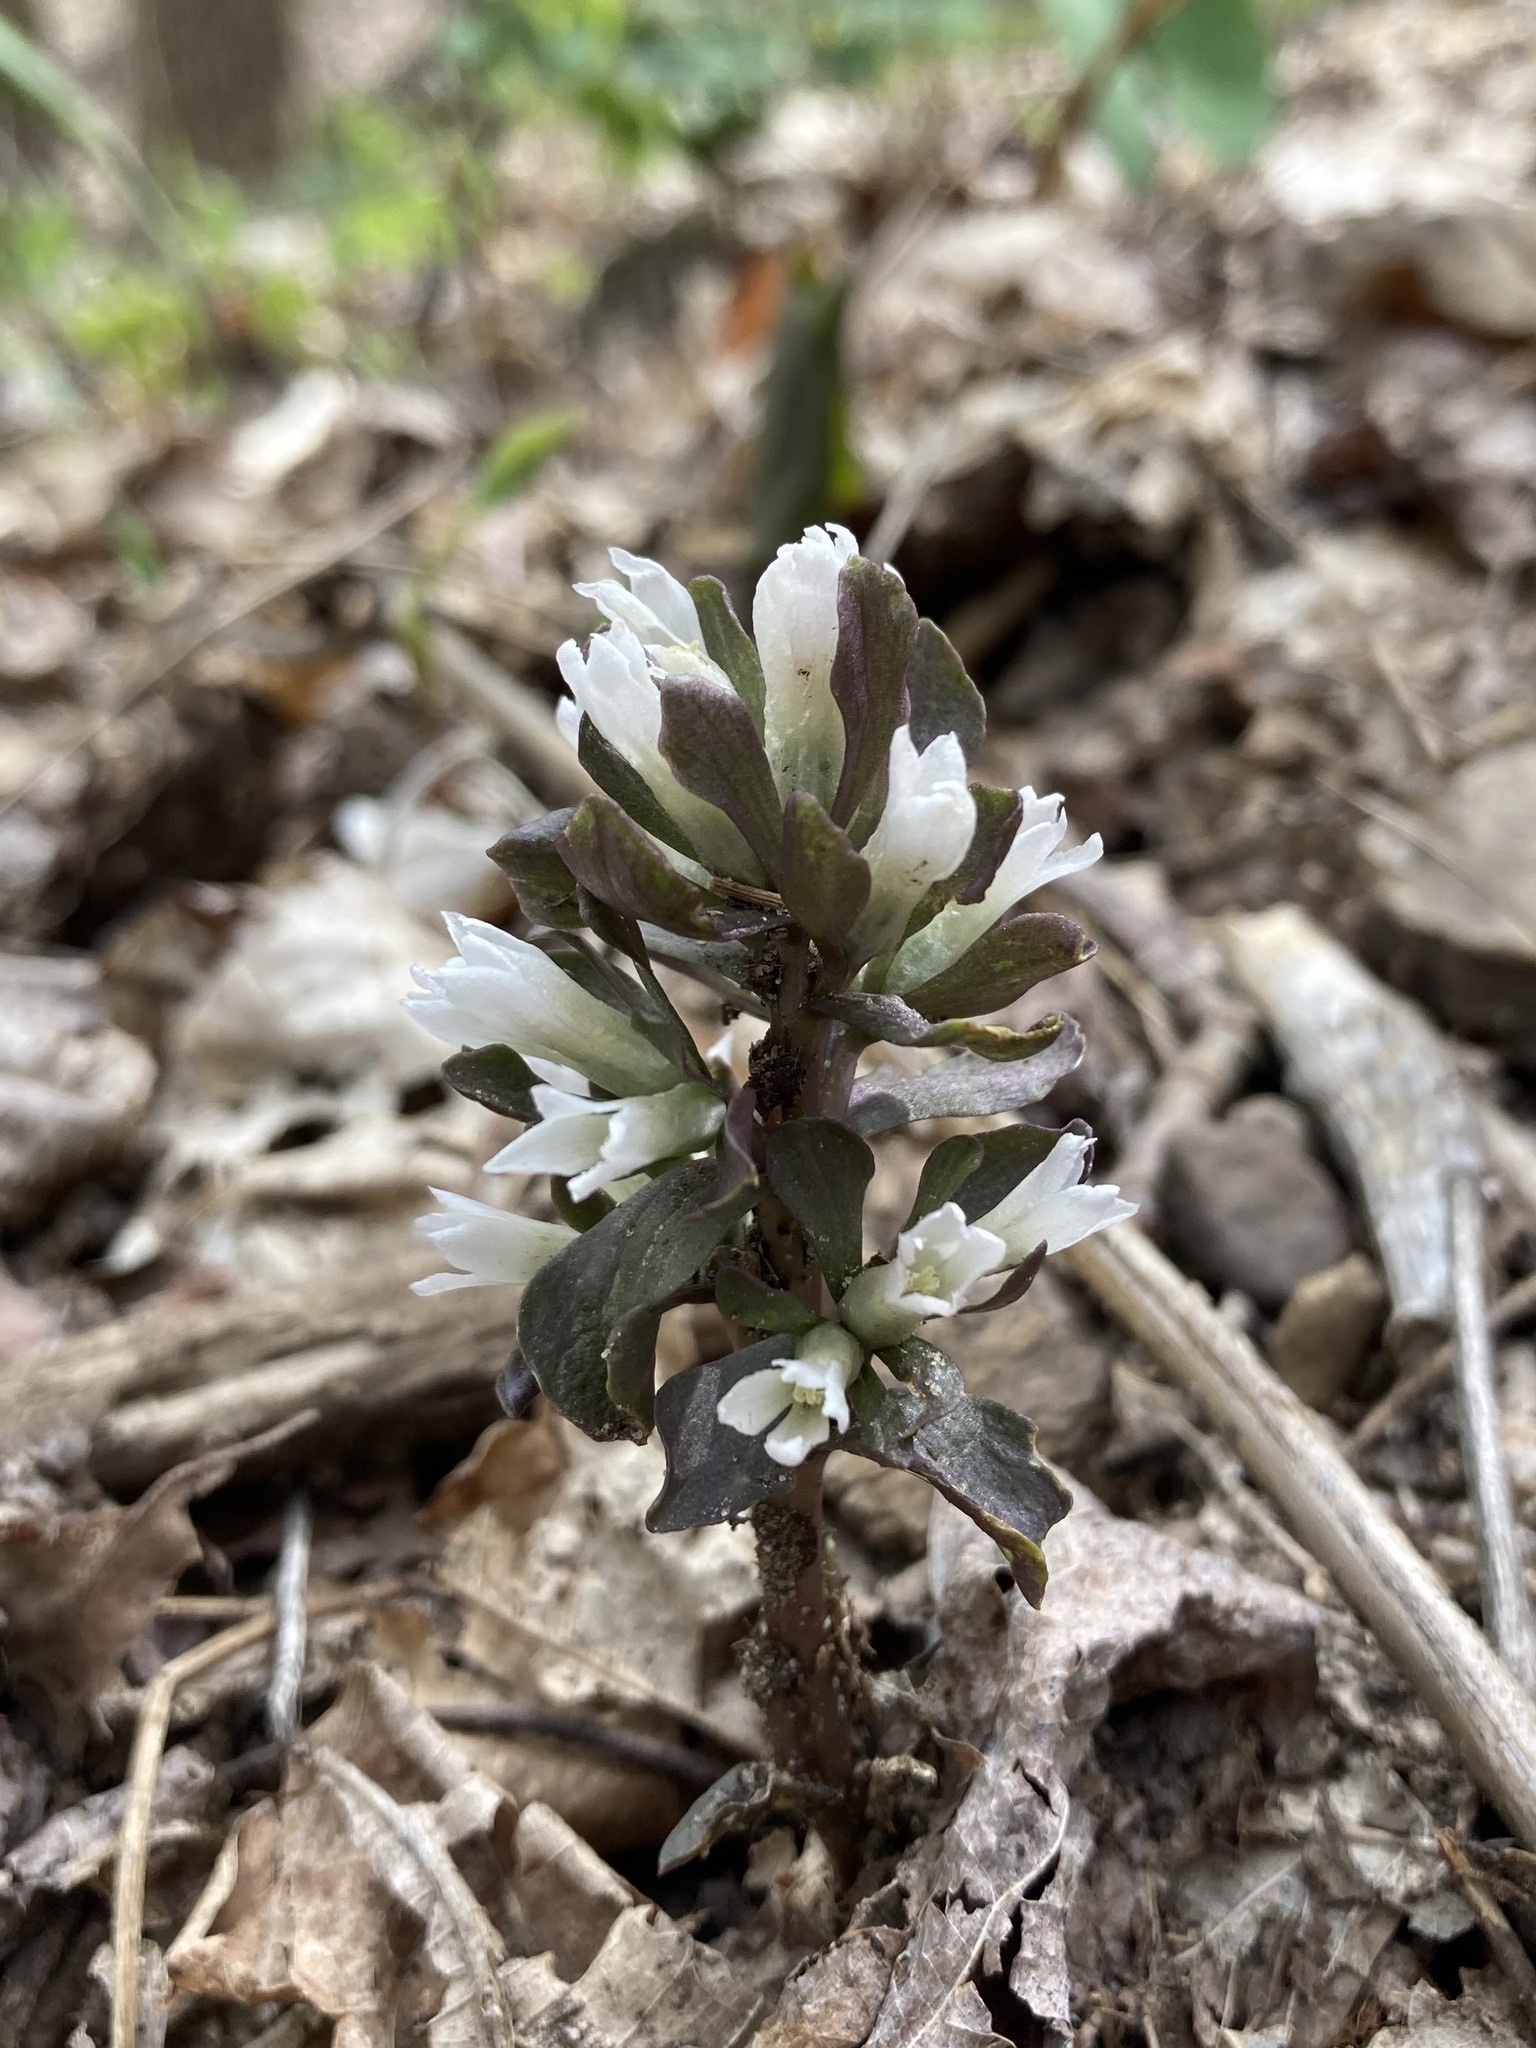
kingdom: Plantae
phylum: Tracheophyta
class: Magnoliopsida
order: Gentianales
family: Gentianaceae
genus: Obolaria
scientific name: Obolaria virginica
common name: Pennywort
